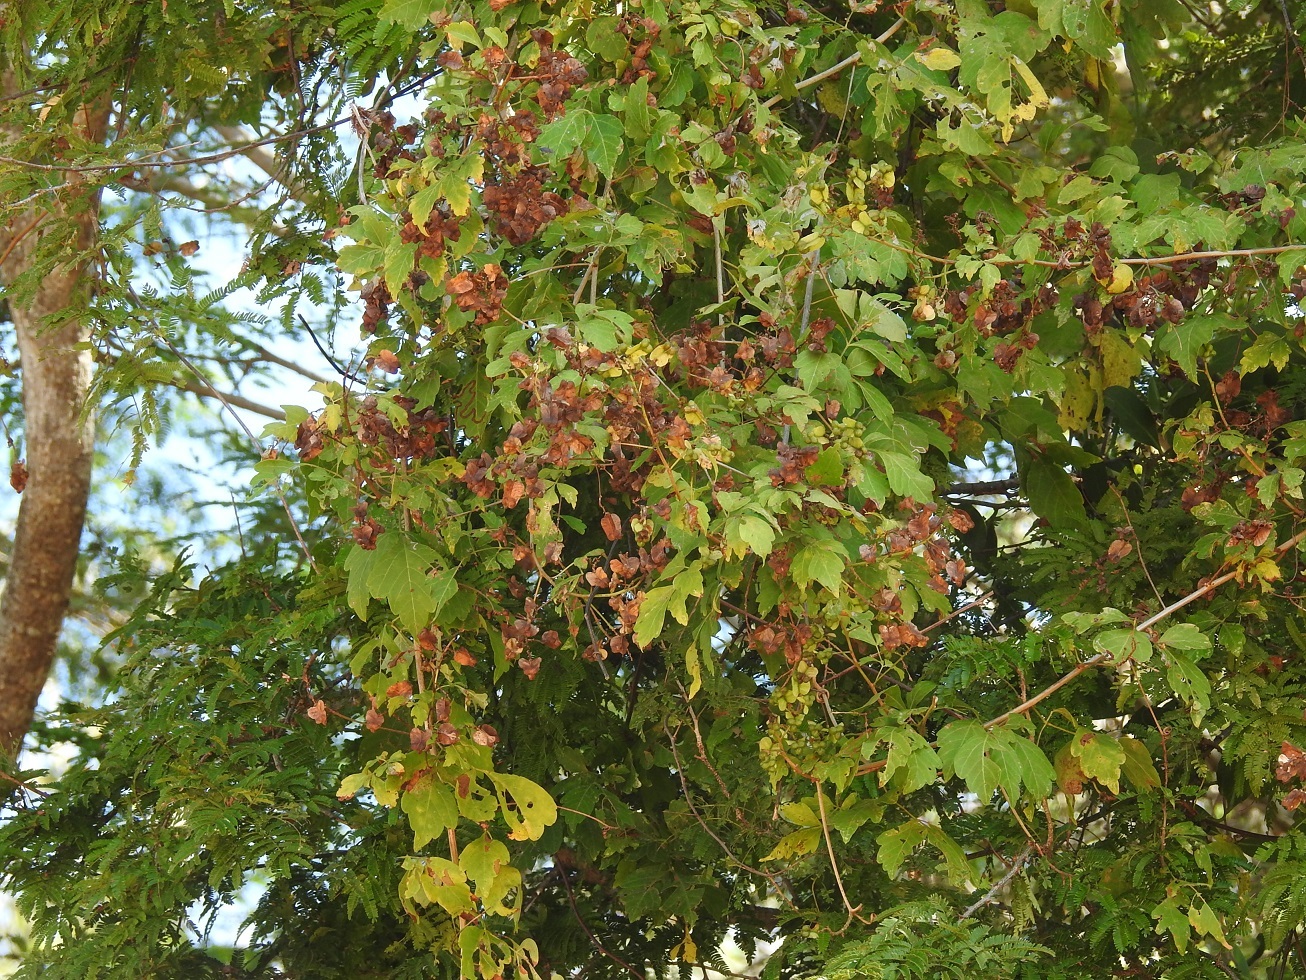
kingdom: Plantae
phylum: Tracheophyta
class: Magnoliopsida
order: Sapindales
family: Sapindaceae
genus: Serjania
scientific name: Serjania cardiospermoides
